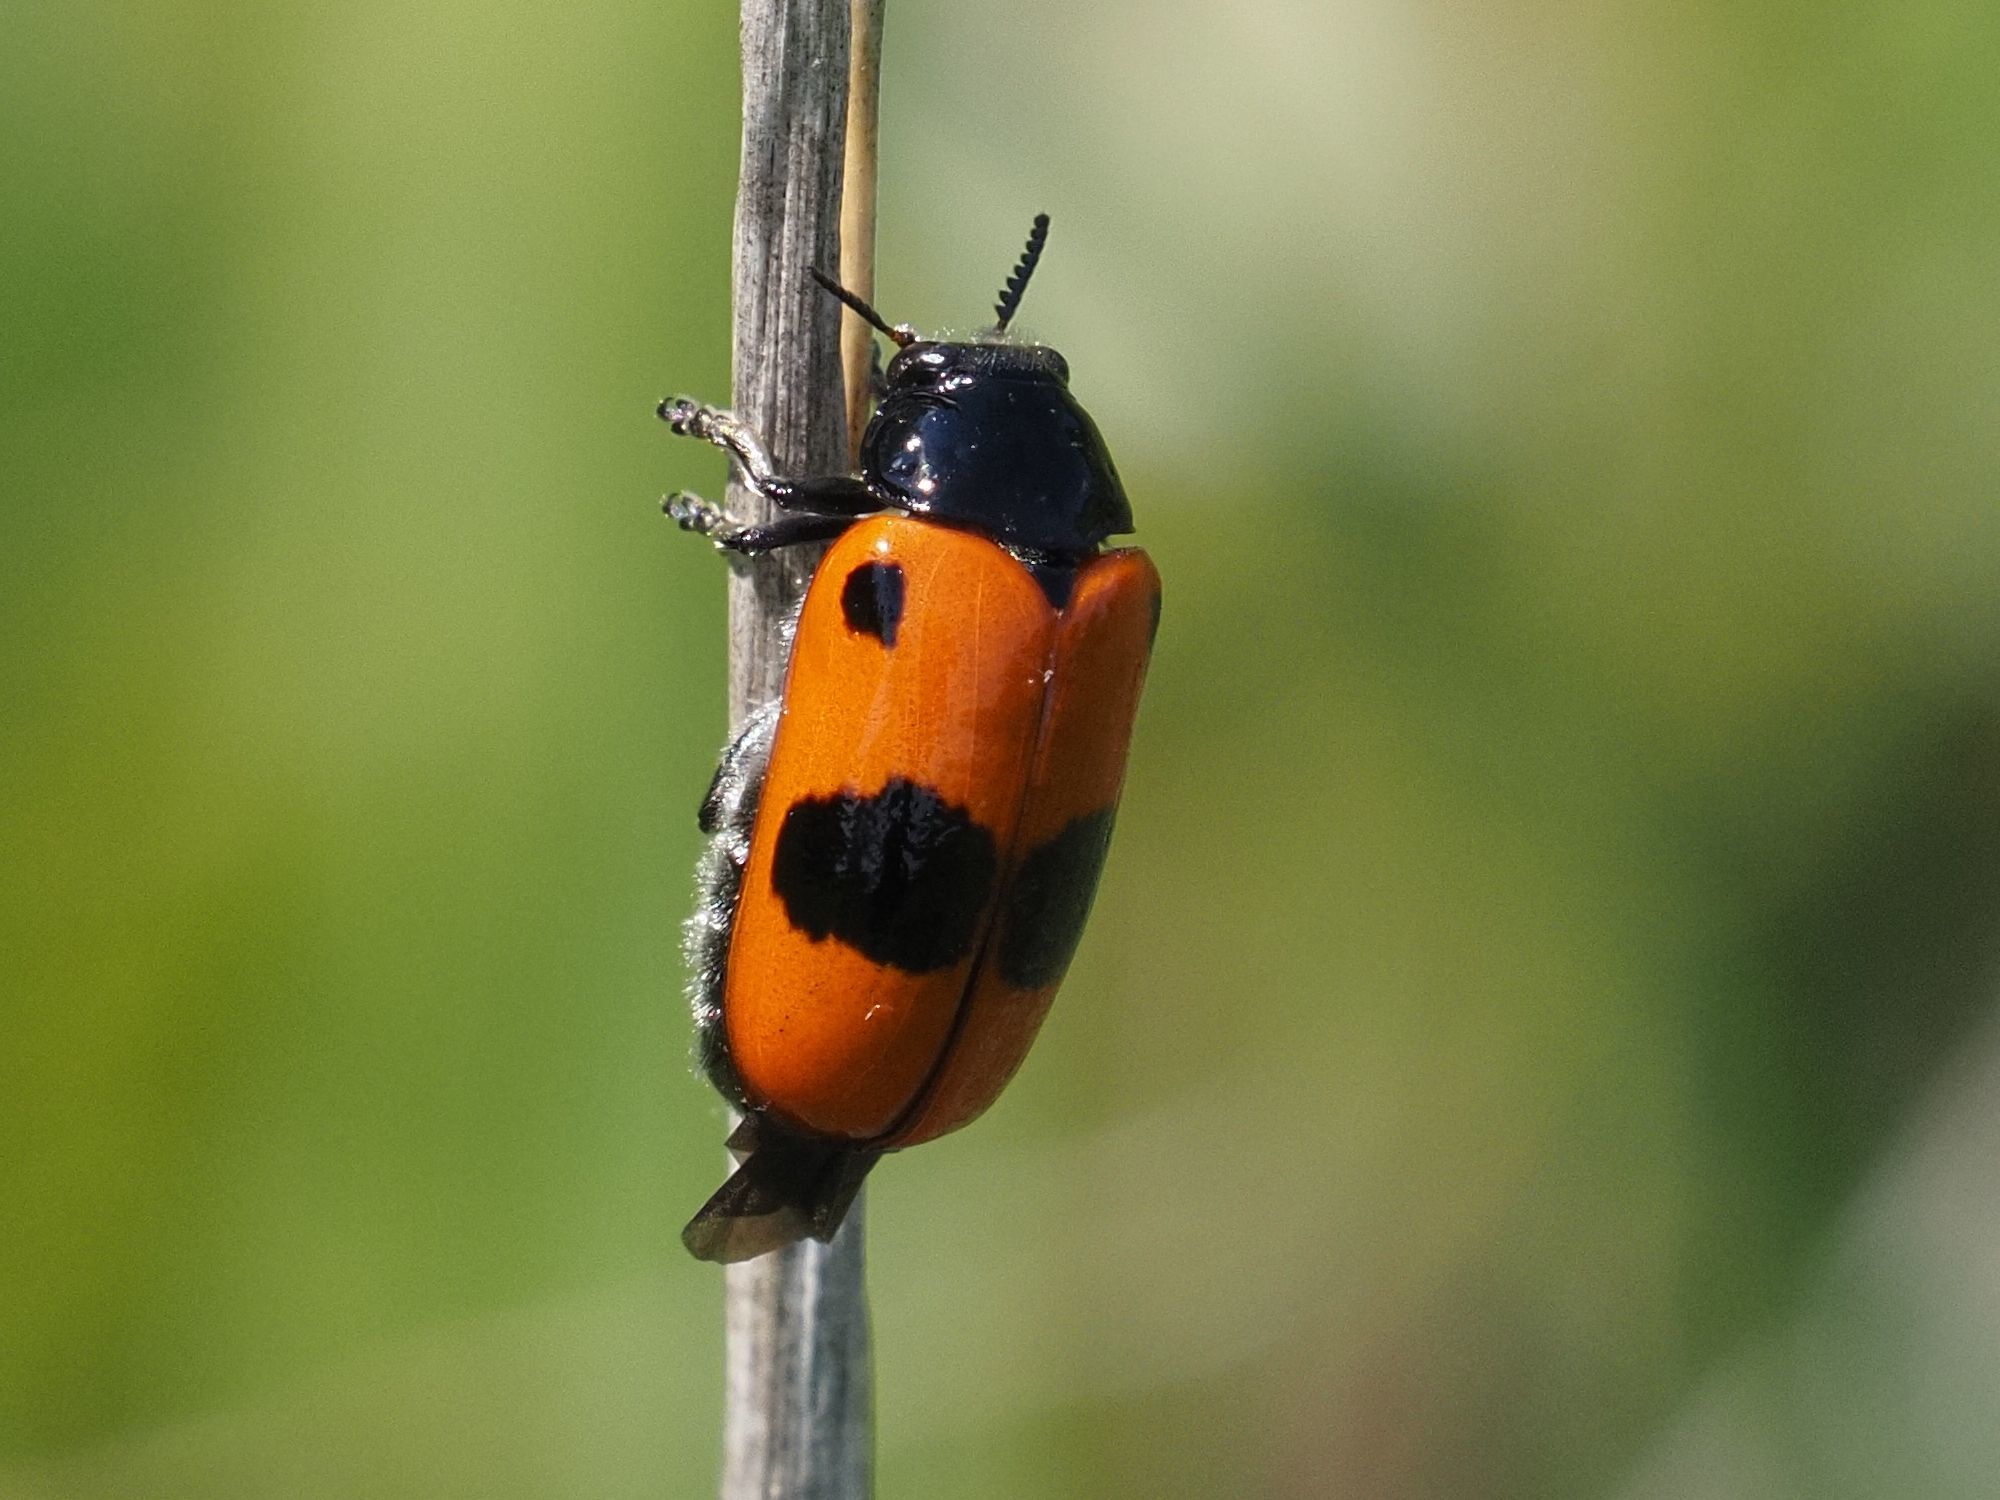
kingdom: Animalia
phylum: Arthropoda
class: Insecta
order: Coleoptera
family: Chrysomelidae
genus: Clytra
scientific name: Clytra laeviuscula
